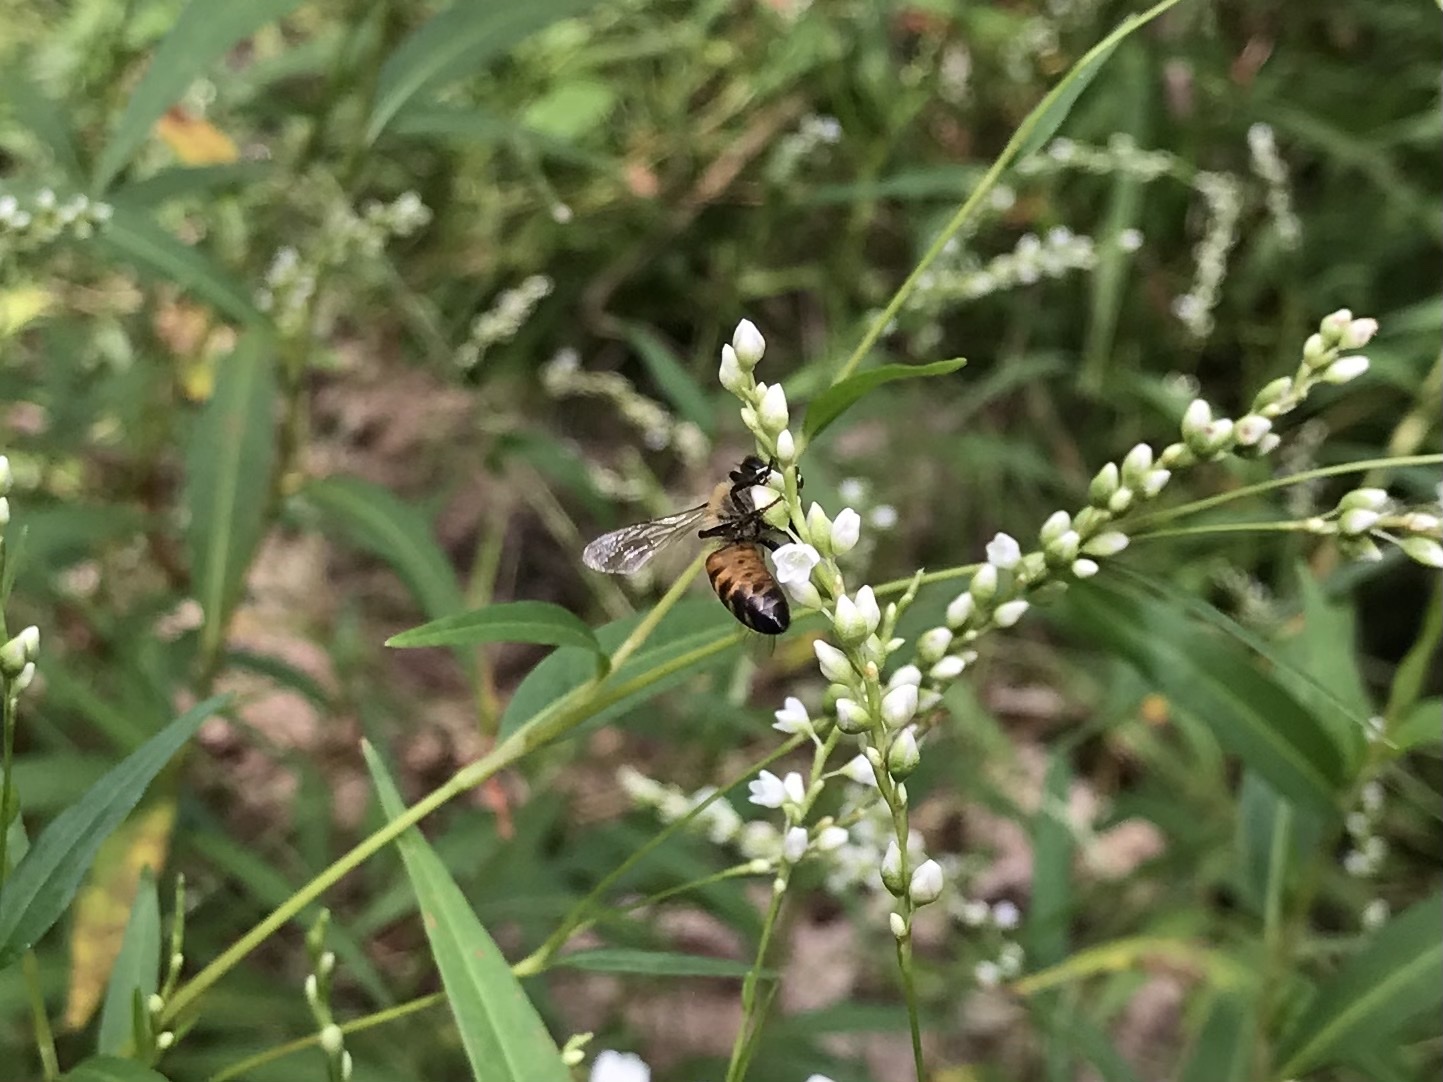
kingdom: Animalia
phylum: Arthropoda
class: Insecta
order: Hymenoptera
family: Apidae
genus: Apis
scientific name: Apis mellifera
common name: Honey bee
